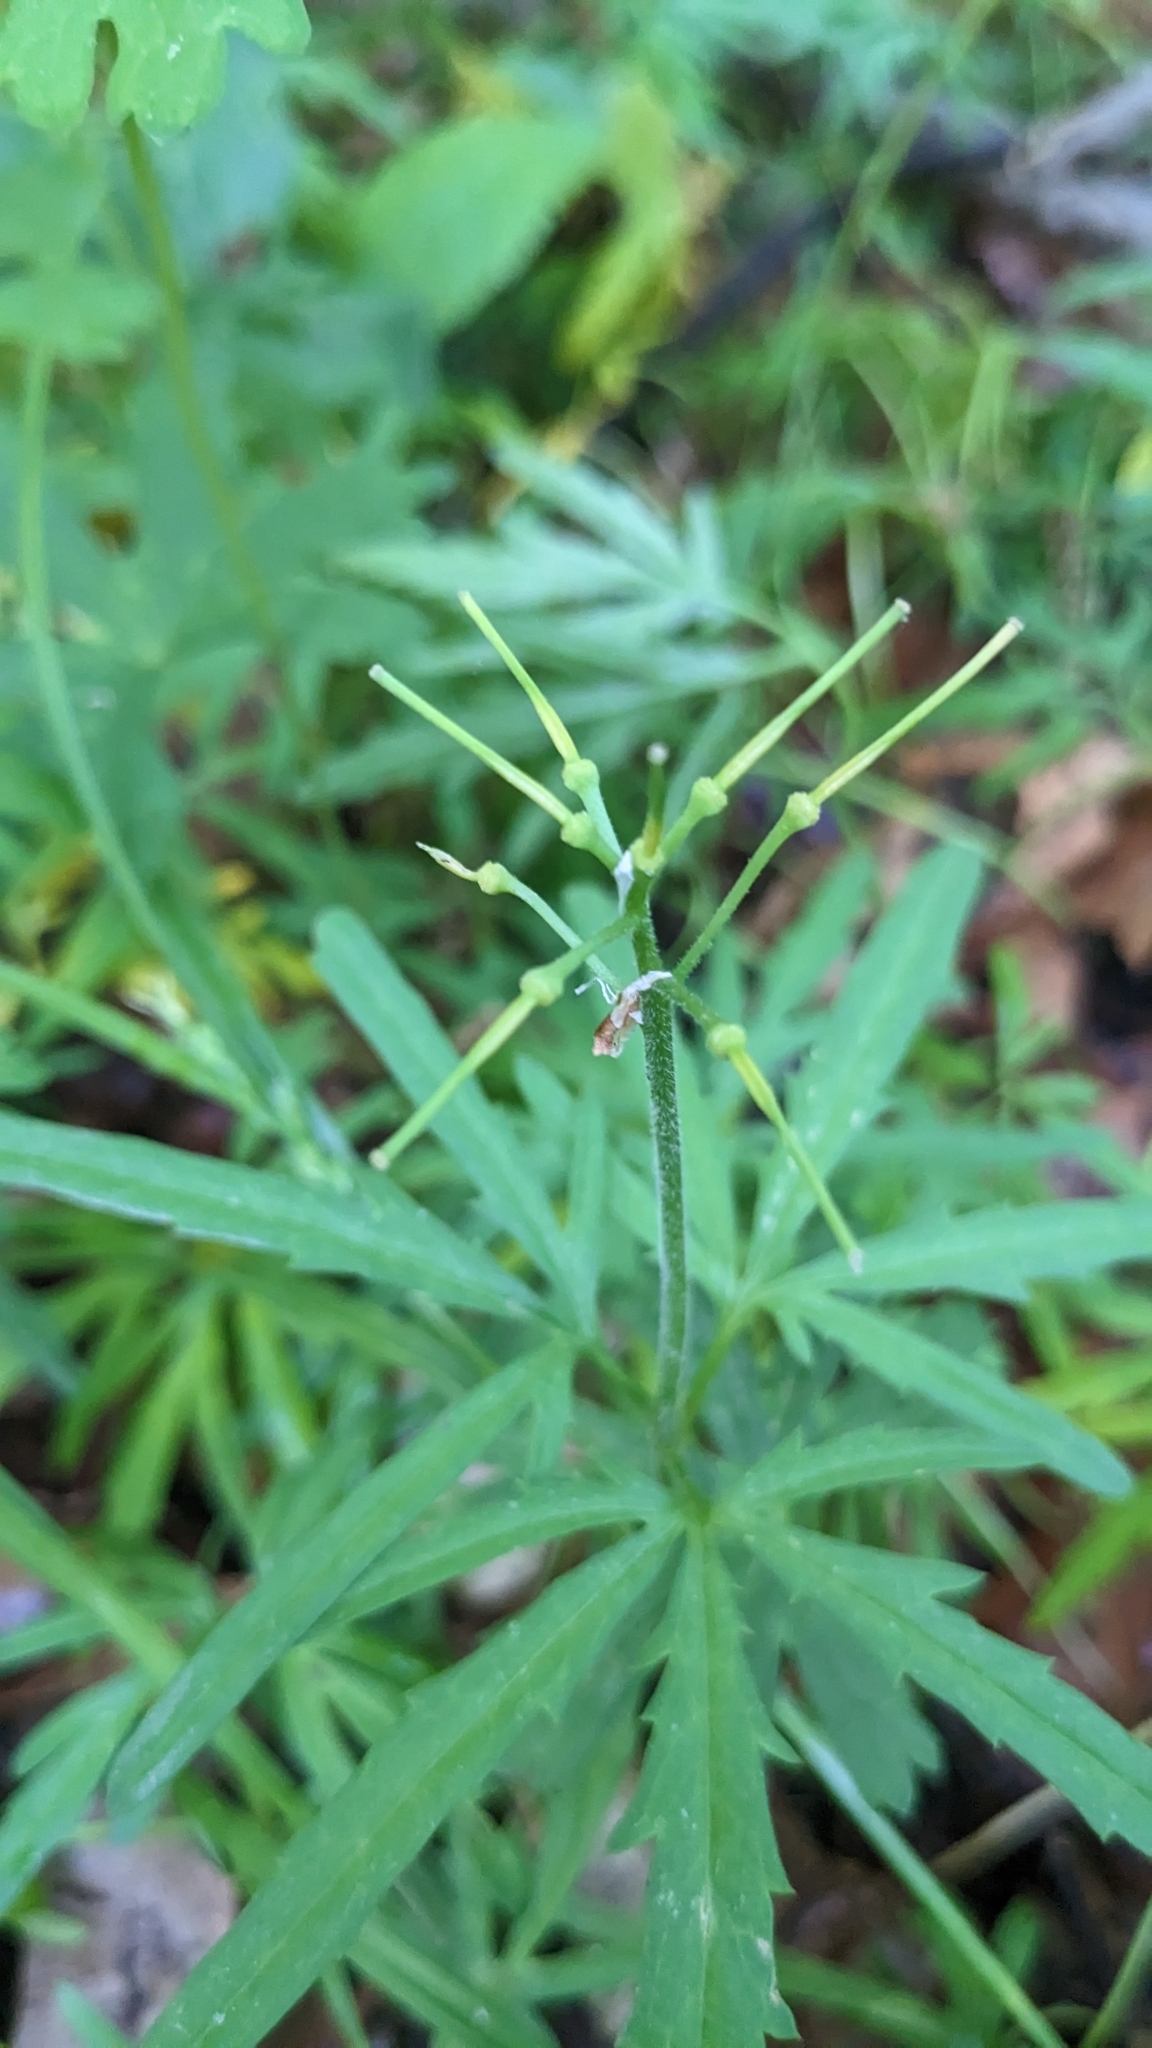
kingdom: Plantae
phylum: Tracheophyta
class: Magnoliopsida
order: Brassicales
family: Brassicaceae
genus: Cardamine
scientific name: Cardamine concatenata
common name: Cut-leaf toothcup
